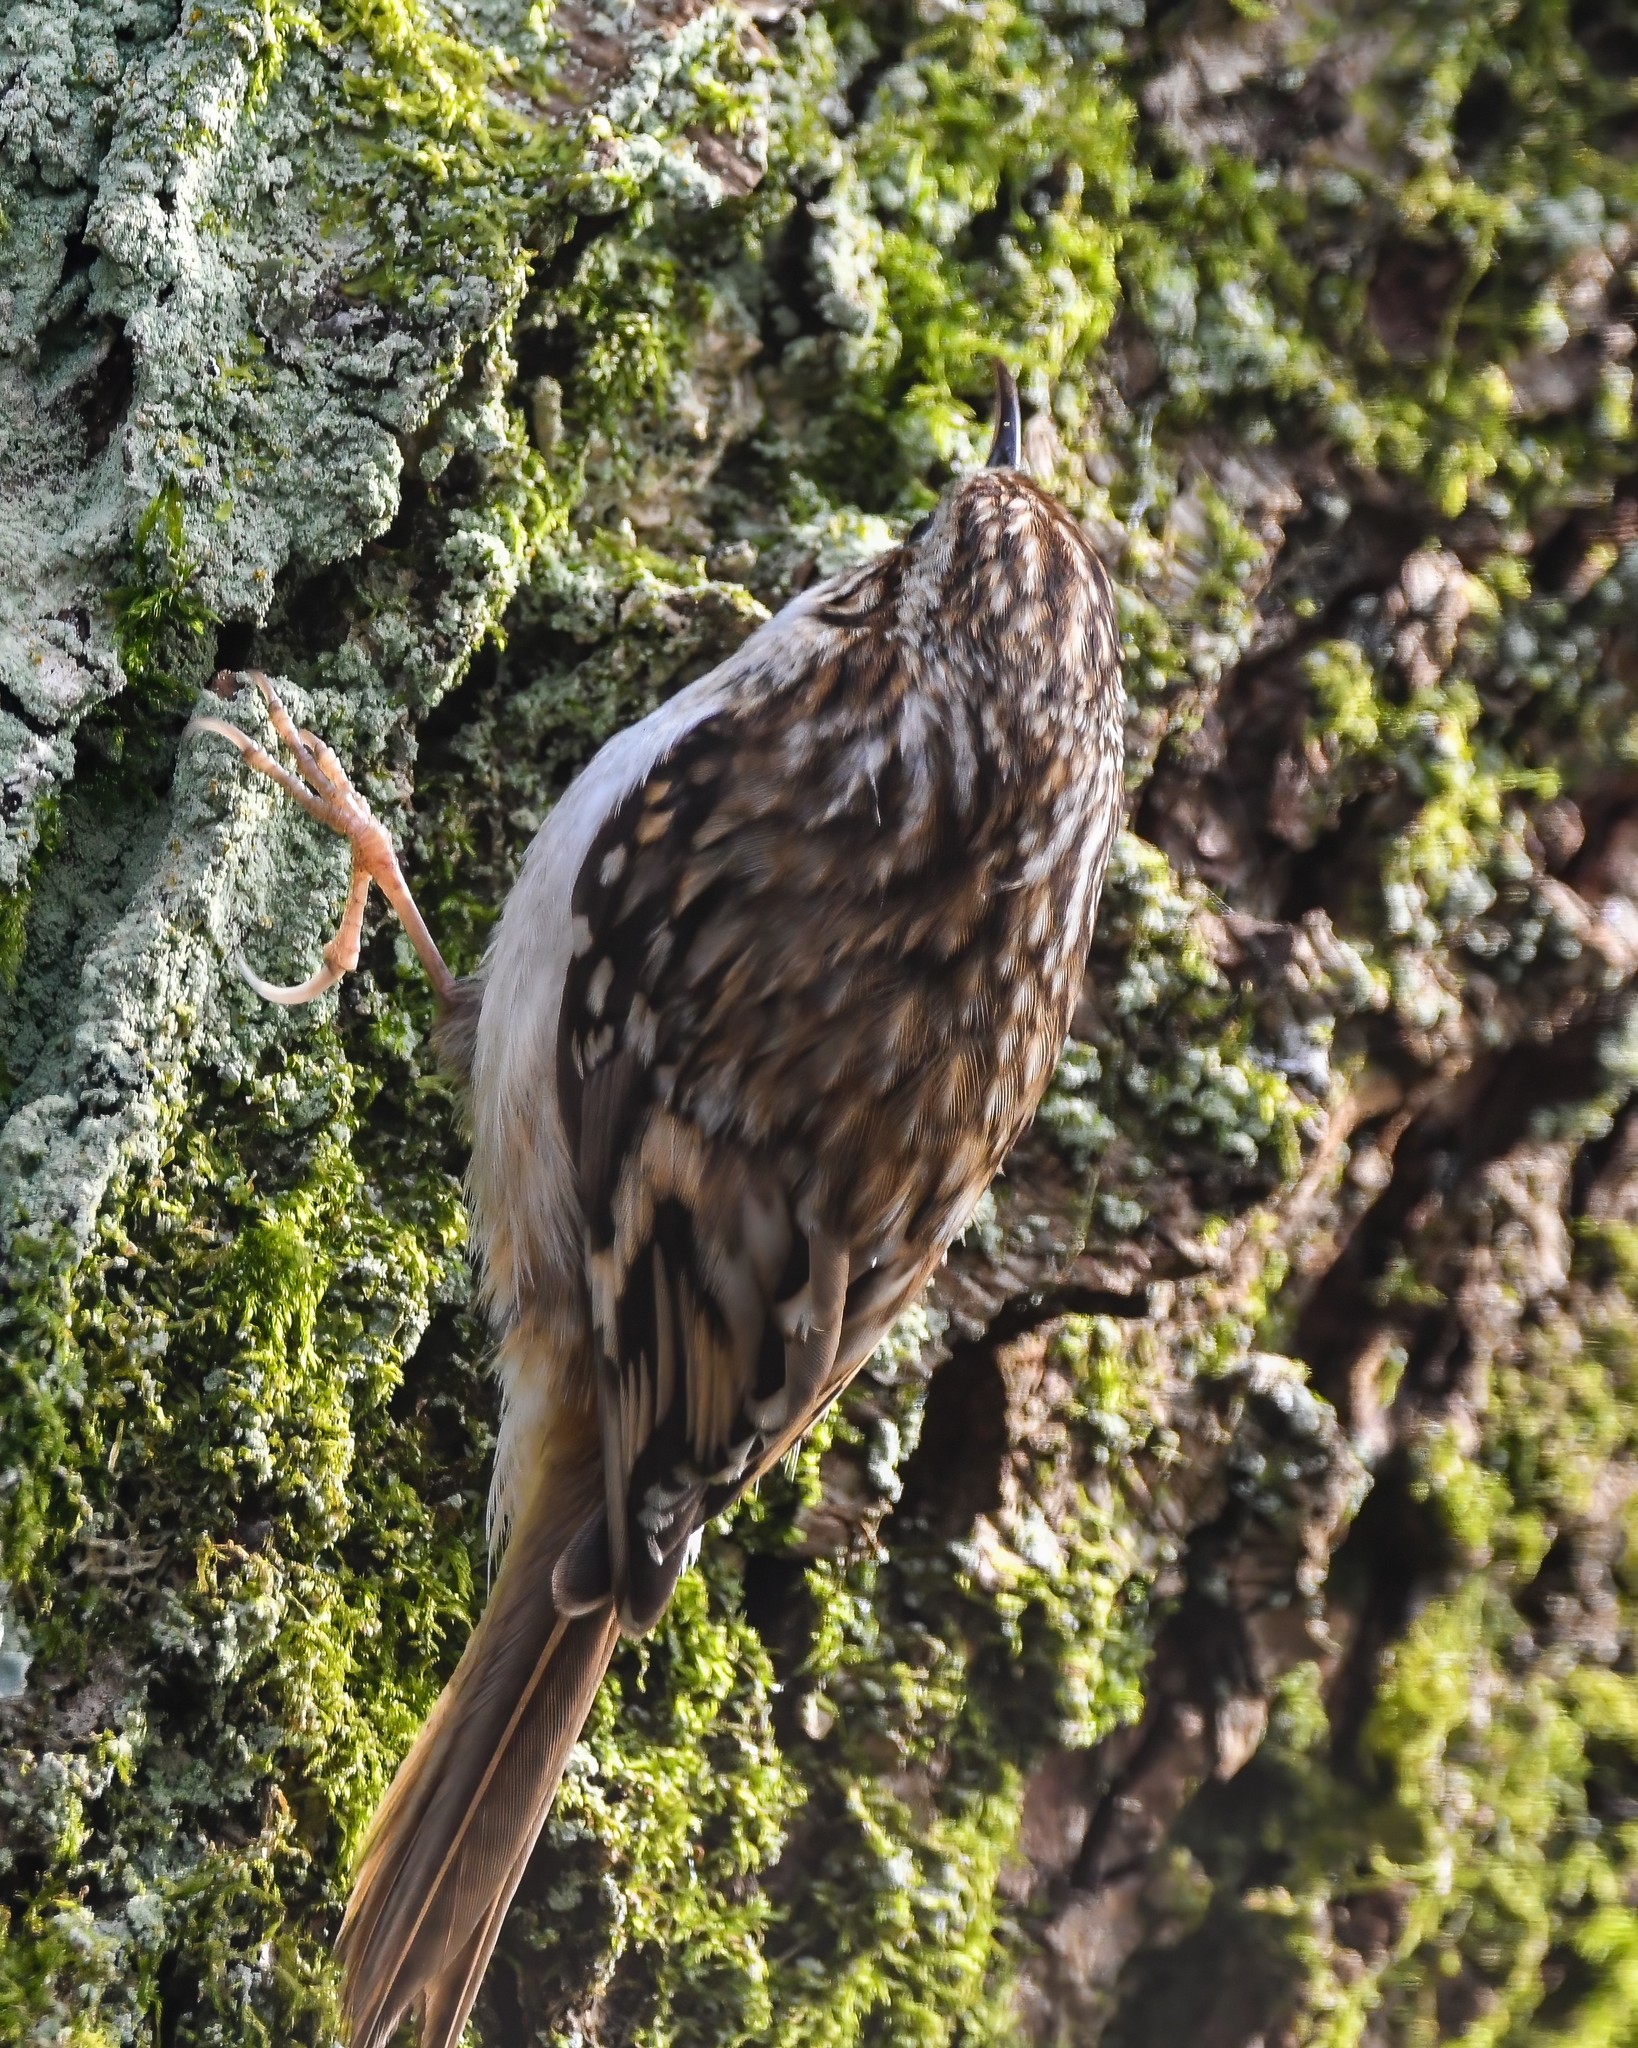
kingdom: Animalia
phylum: Chordata
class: Aves
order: Passeriformes
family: Certhiidae
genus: Certhia
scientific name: Certhia familiaris
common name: Eurasian treecreeper
